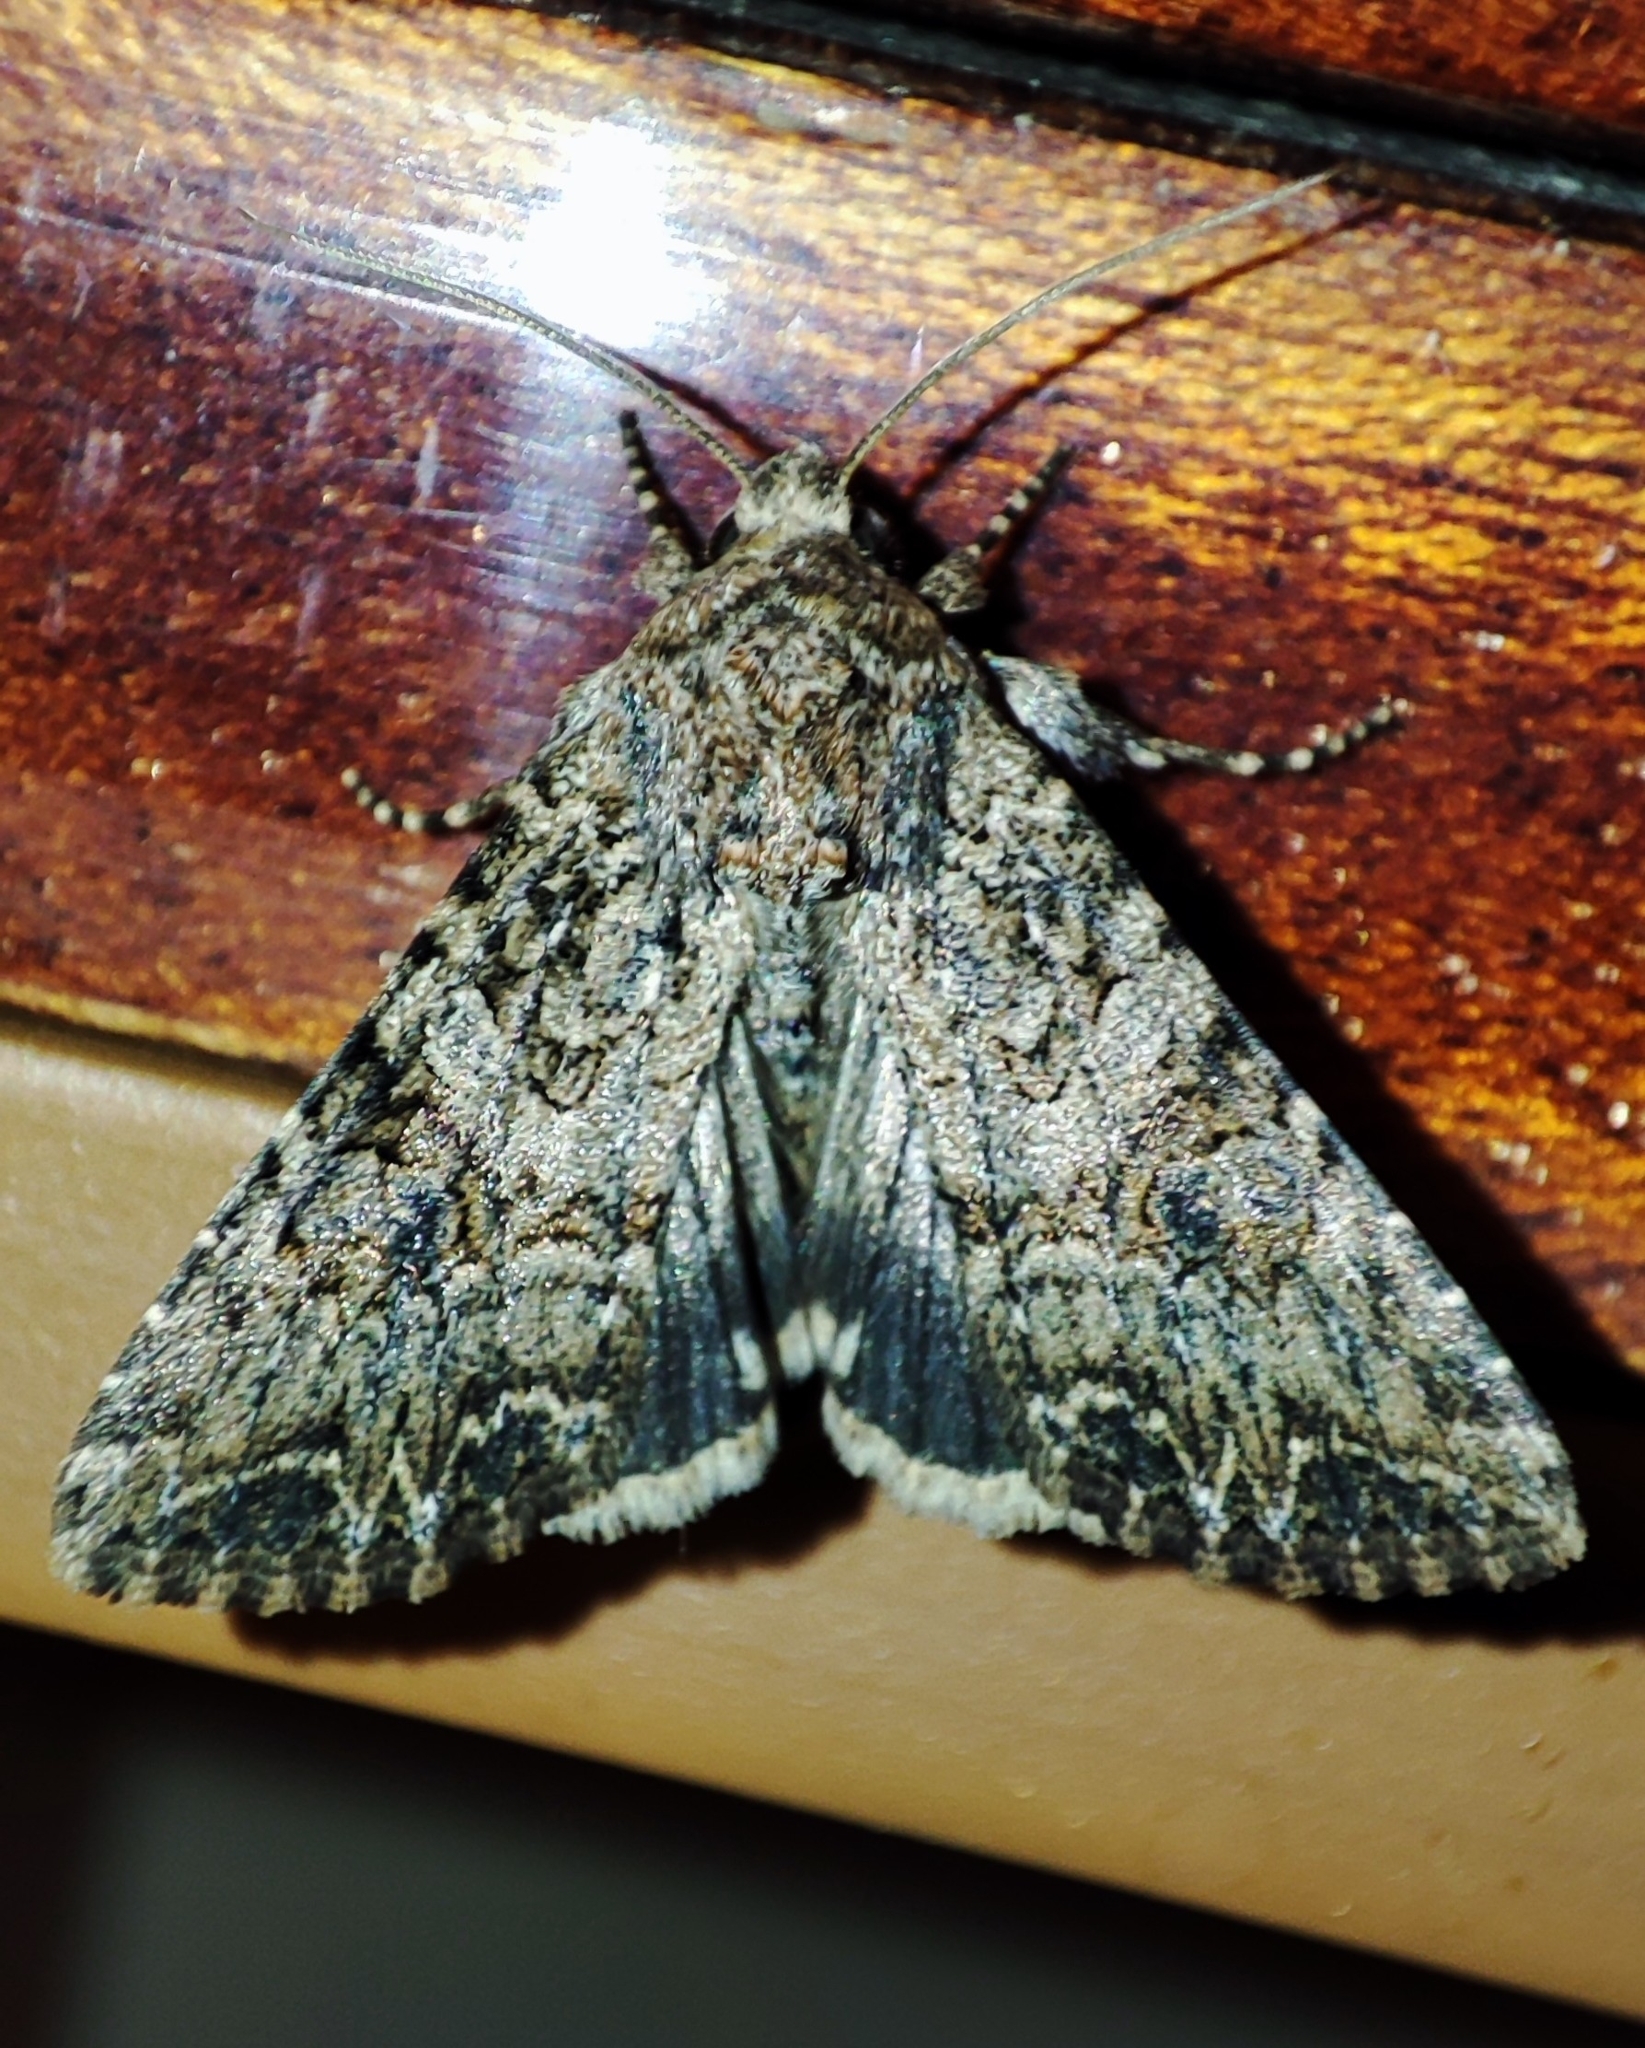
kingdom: Animalia
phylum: Arthropoda
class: Insecta
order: Lepidoptera
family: Noctuidae
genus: Anarta
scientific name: Anarta trifolii
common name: Clover cutworm moth
